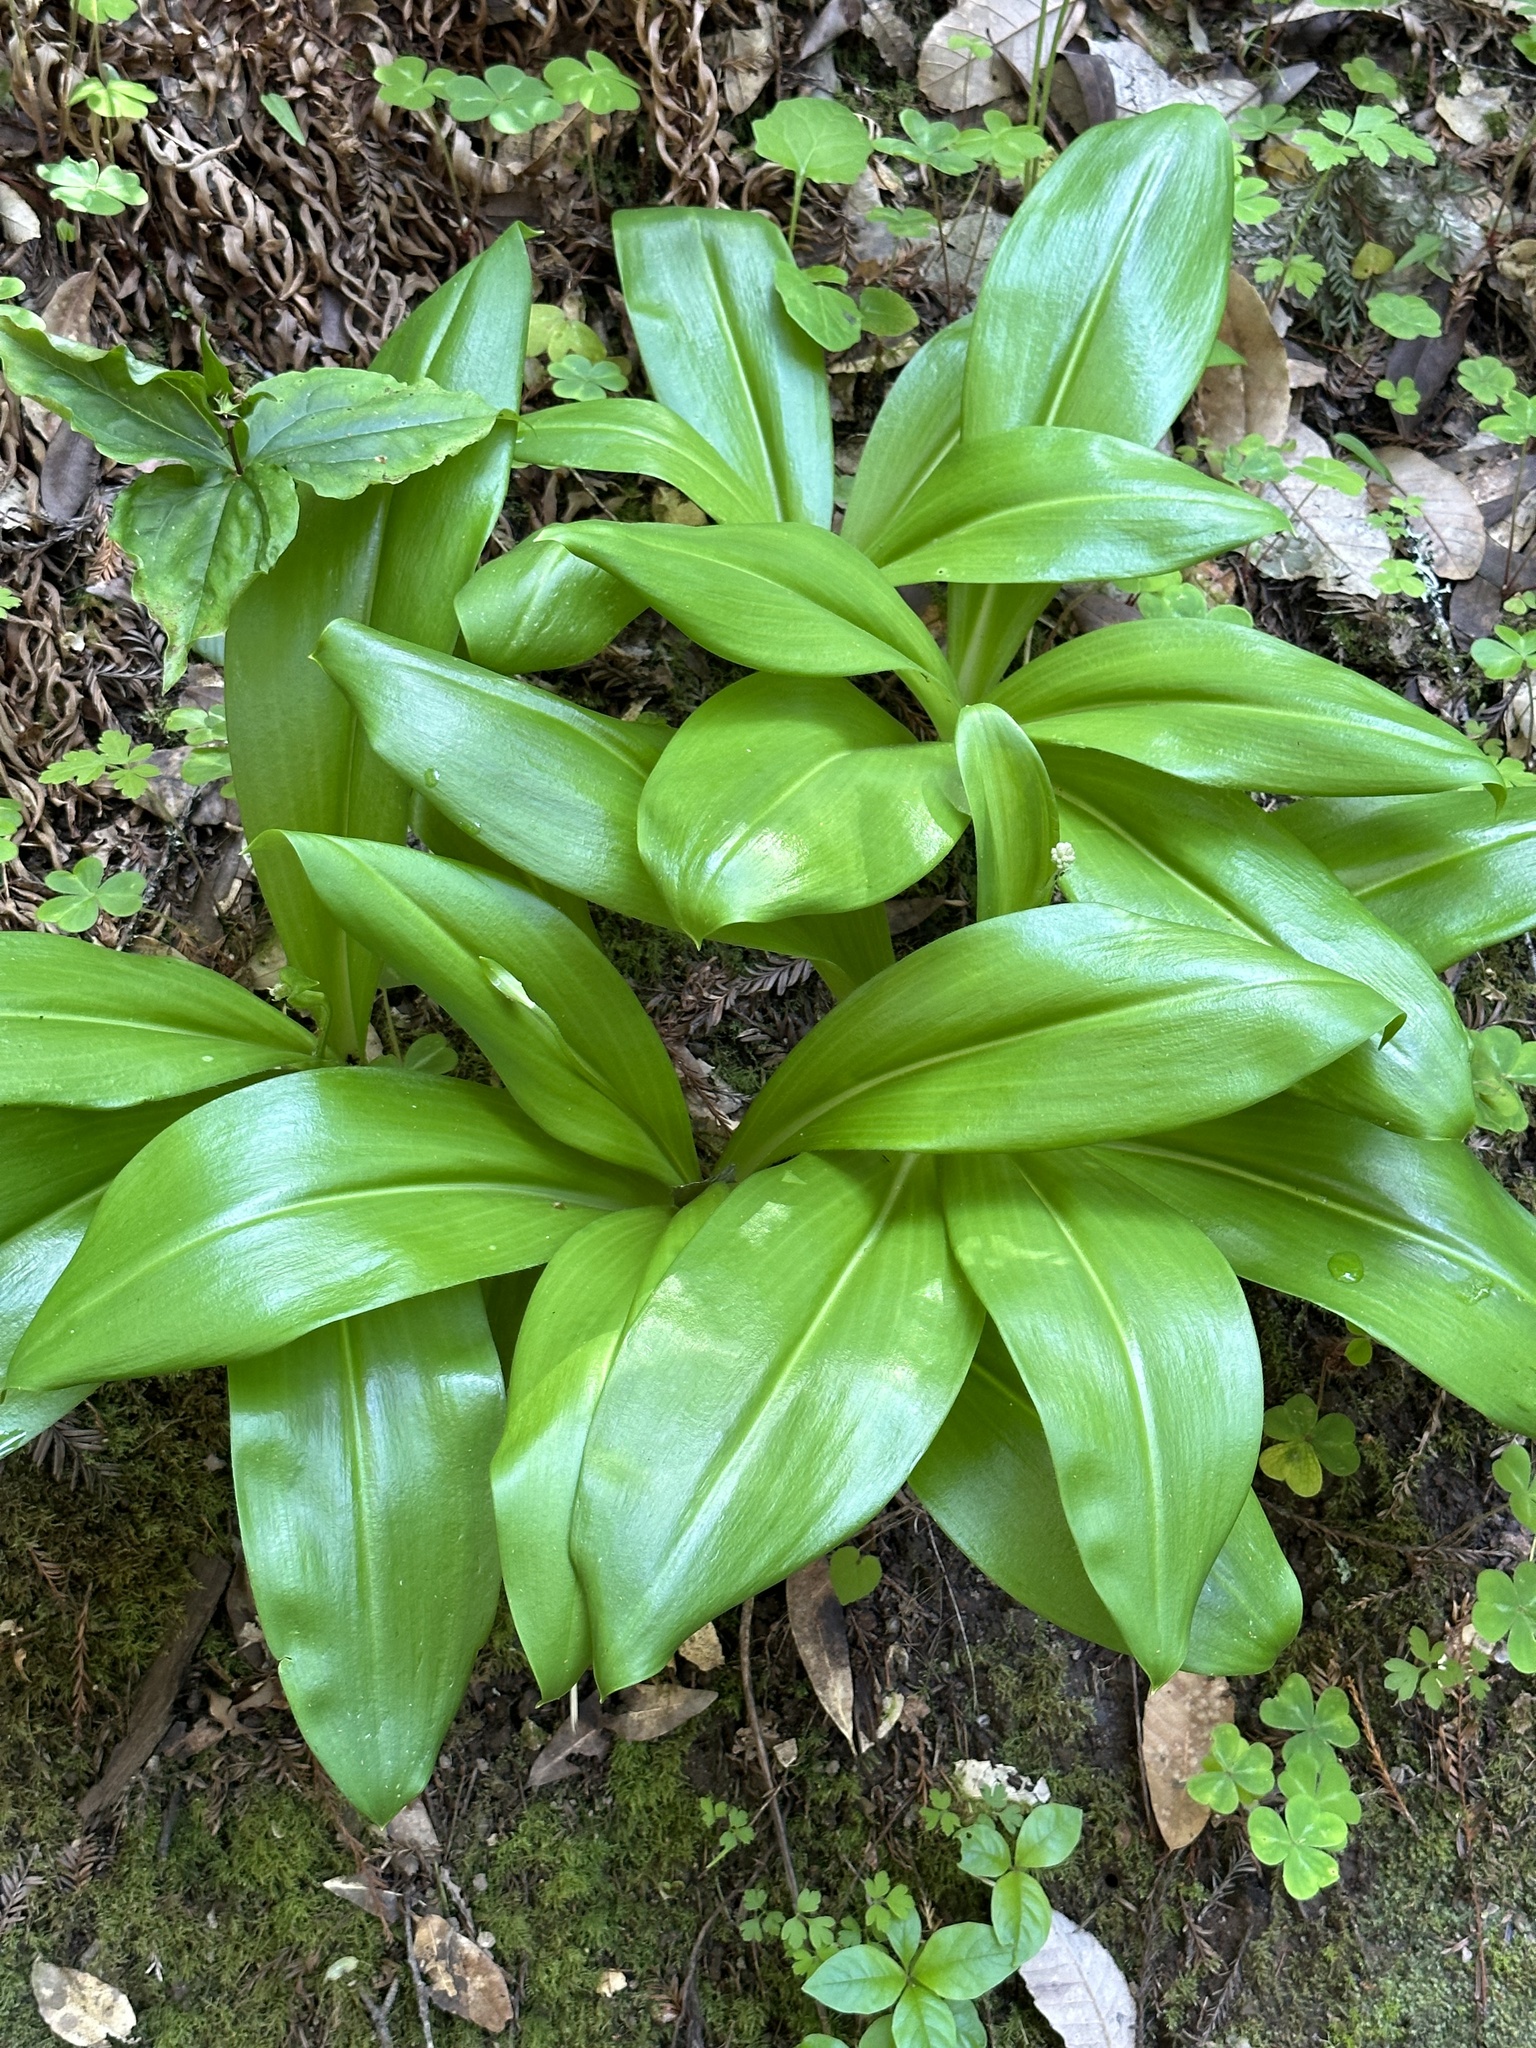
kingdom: Plantae
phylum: Tracheophyta
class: Liliopsida
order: Liliales
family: Liliaceae
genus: Clintonia
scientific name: Clintonia andrewsiana
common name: Red clintonia
